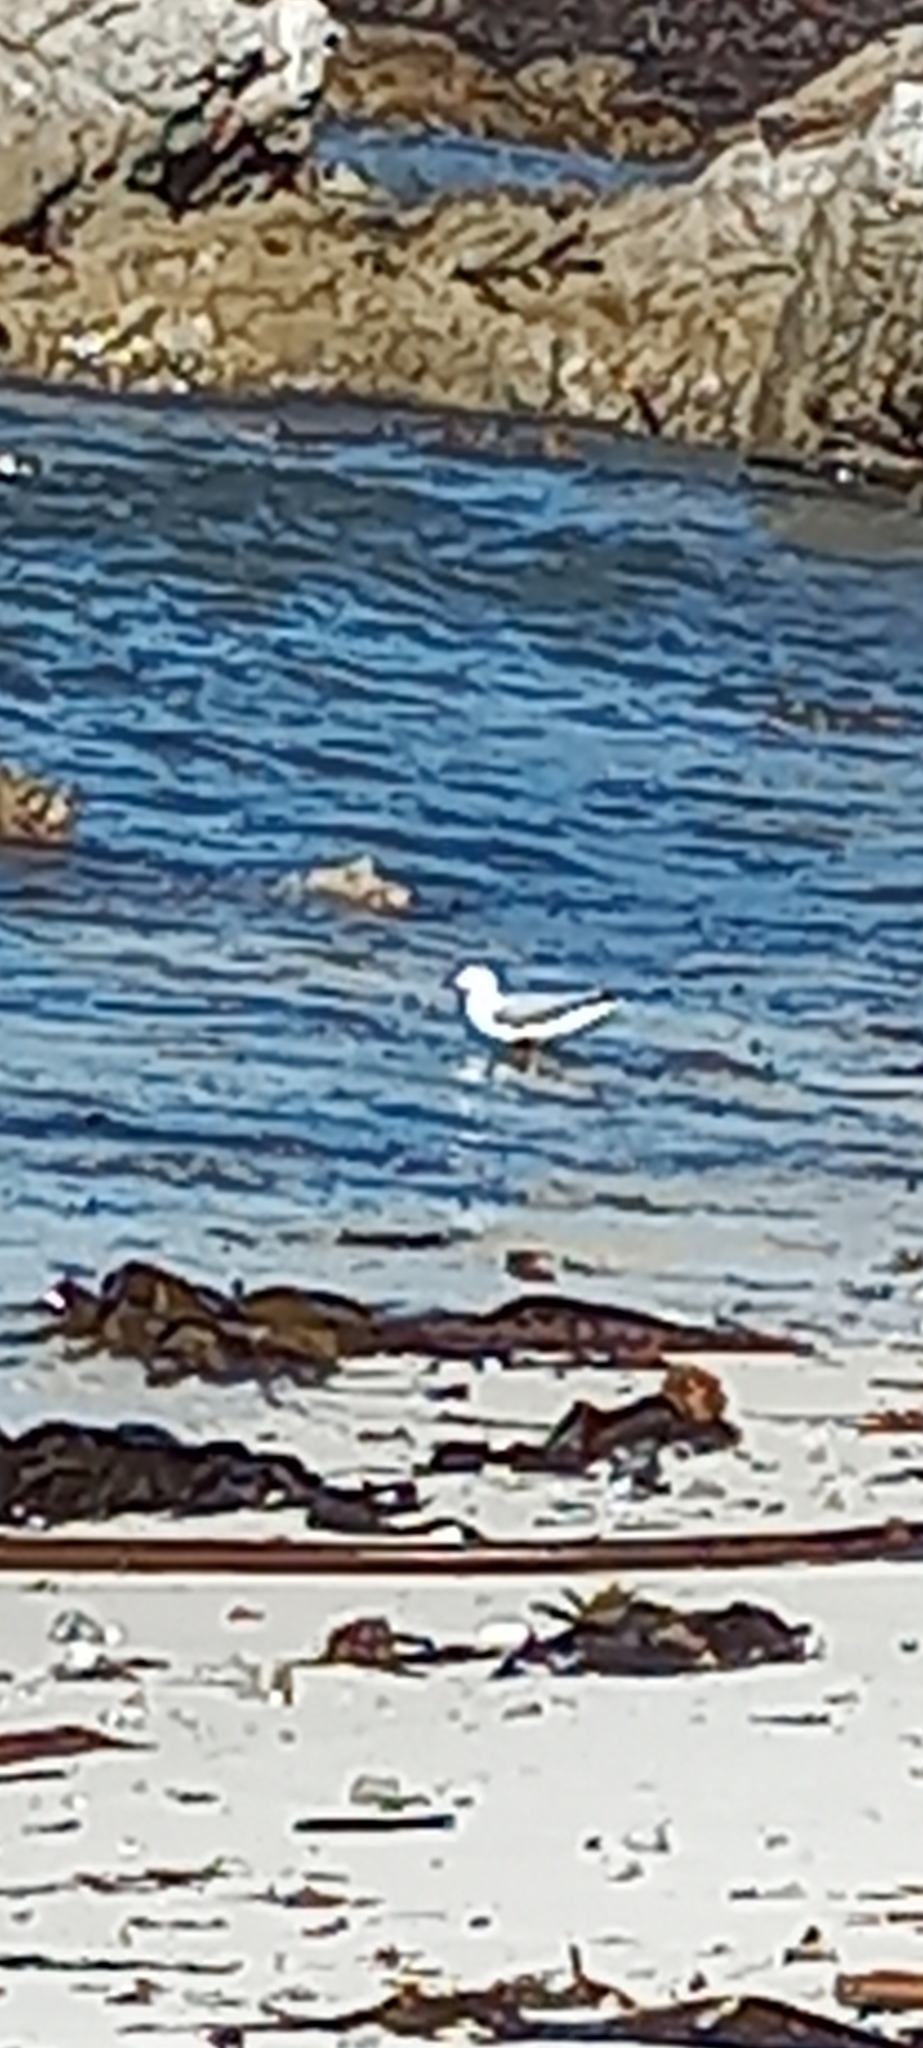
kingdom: Animalia
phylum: Chordata
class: Aves
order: Charadriiformes
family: Laridae
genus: Chroicocephalus
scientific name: Chroicocephalus hartlaubii
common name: Hartlaub's gull
